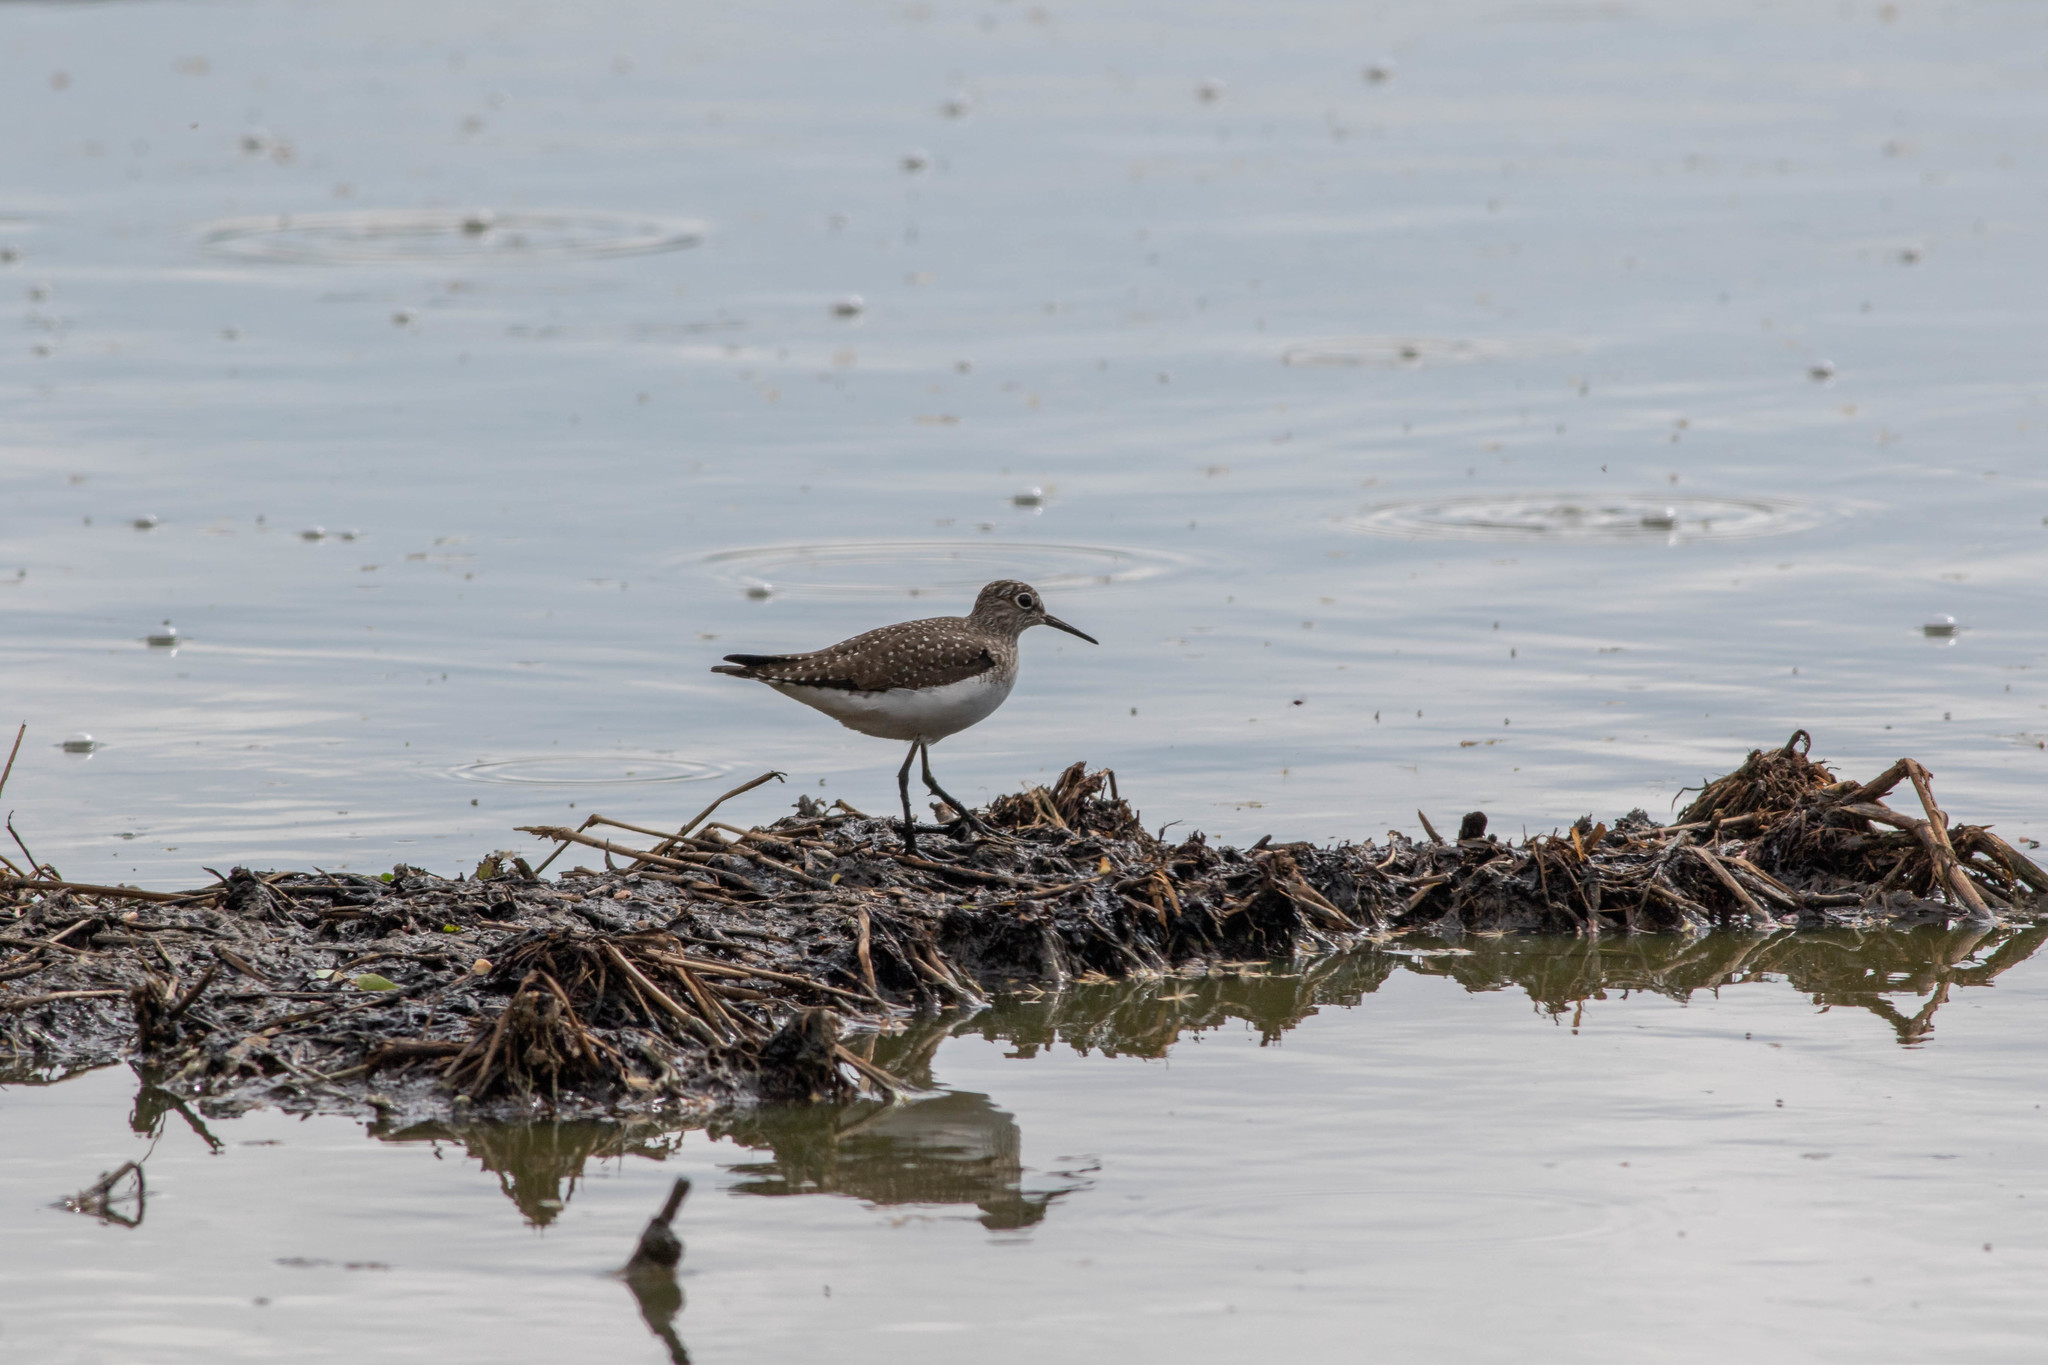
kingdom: Animalia
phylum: Chordata
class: Aves
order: Charadriiformes
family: Scolopacidae
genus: Tringa
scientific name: Tringa solitaria
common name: Solitary sandpiper
